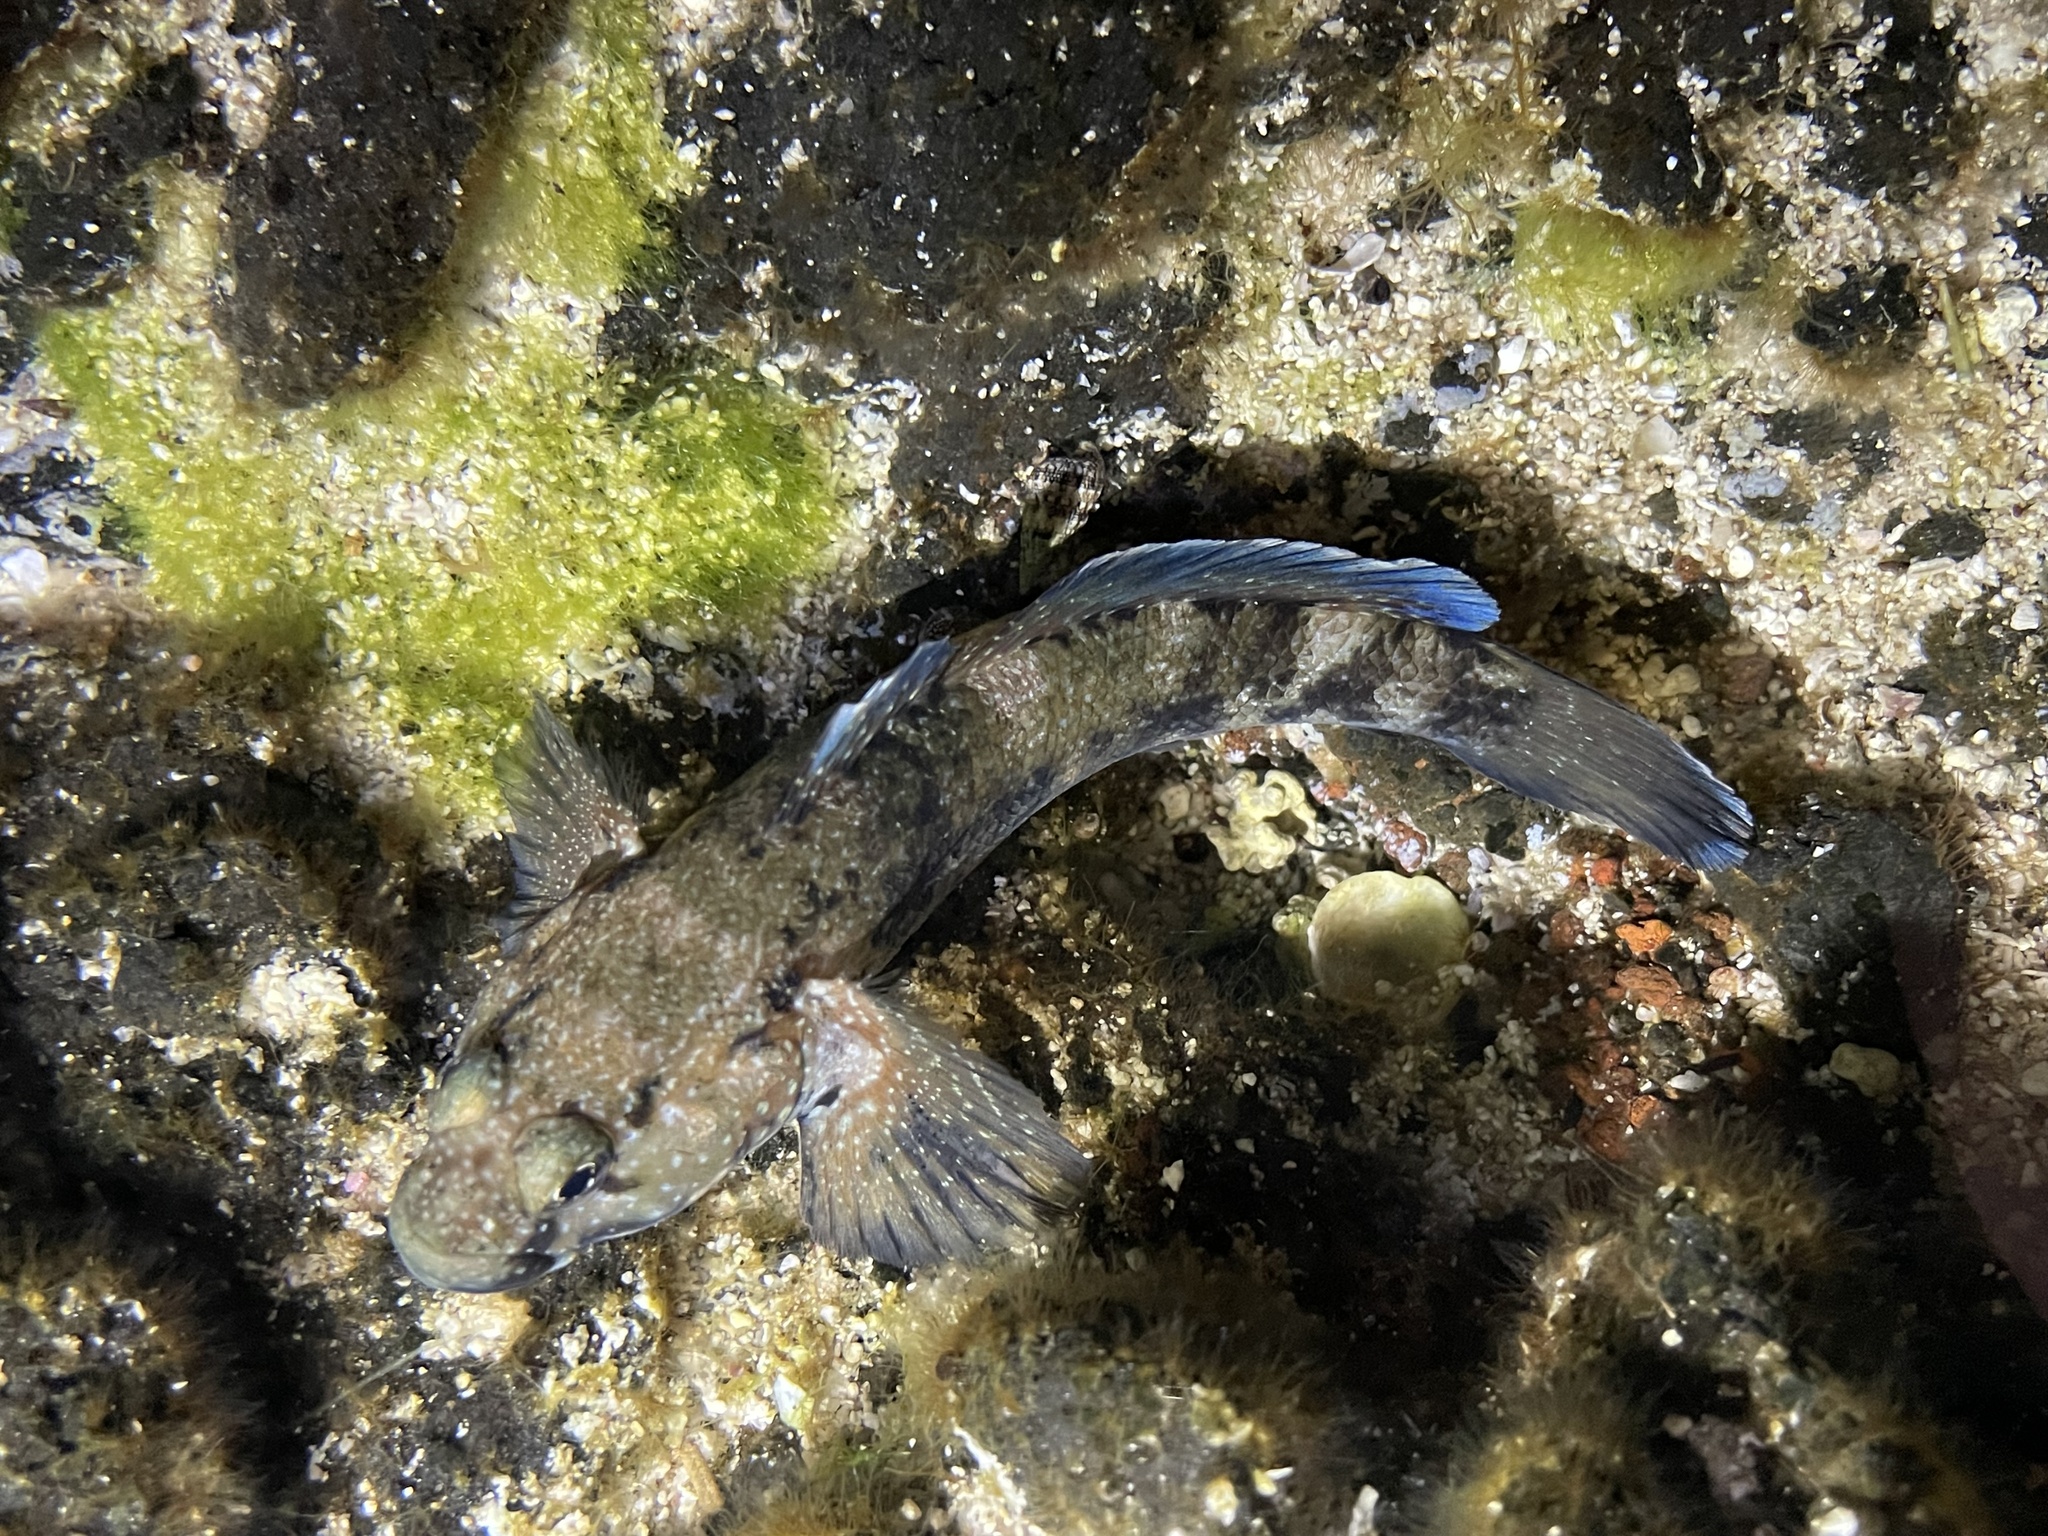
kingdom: Animalia
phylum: Chordata
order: Perciformes
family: Gobiidae
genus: Mauligobius
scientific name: Mauligobius maderensis
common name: Rock goby
